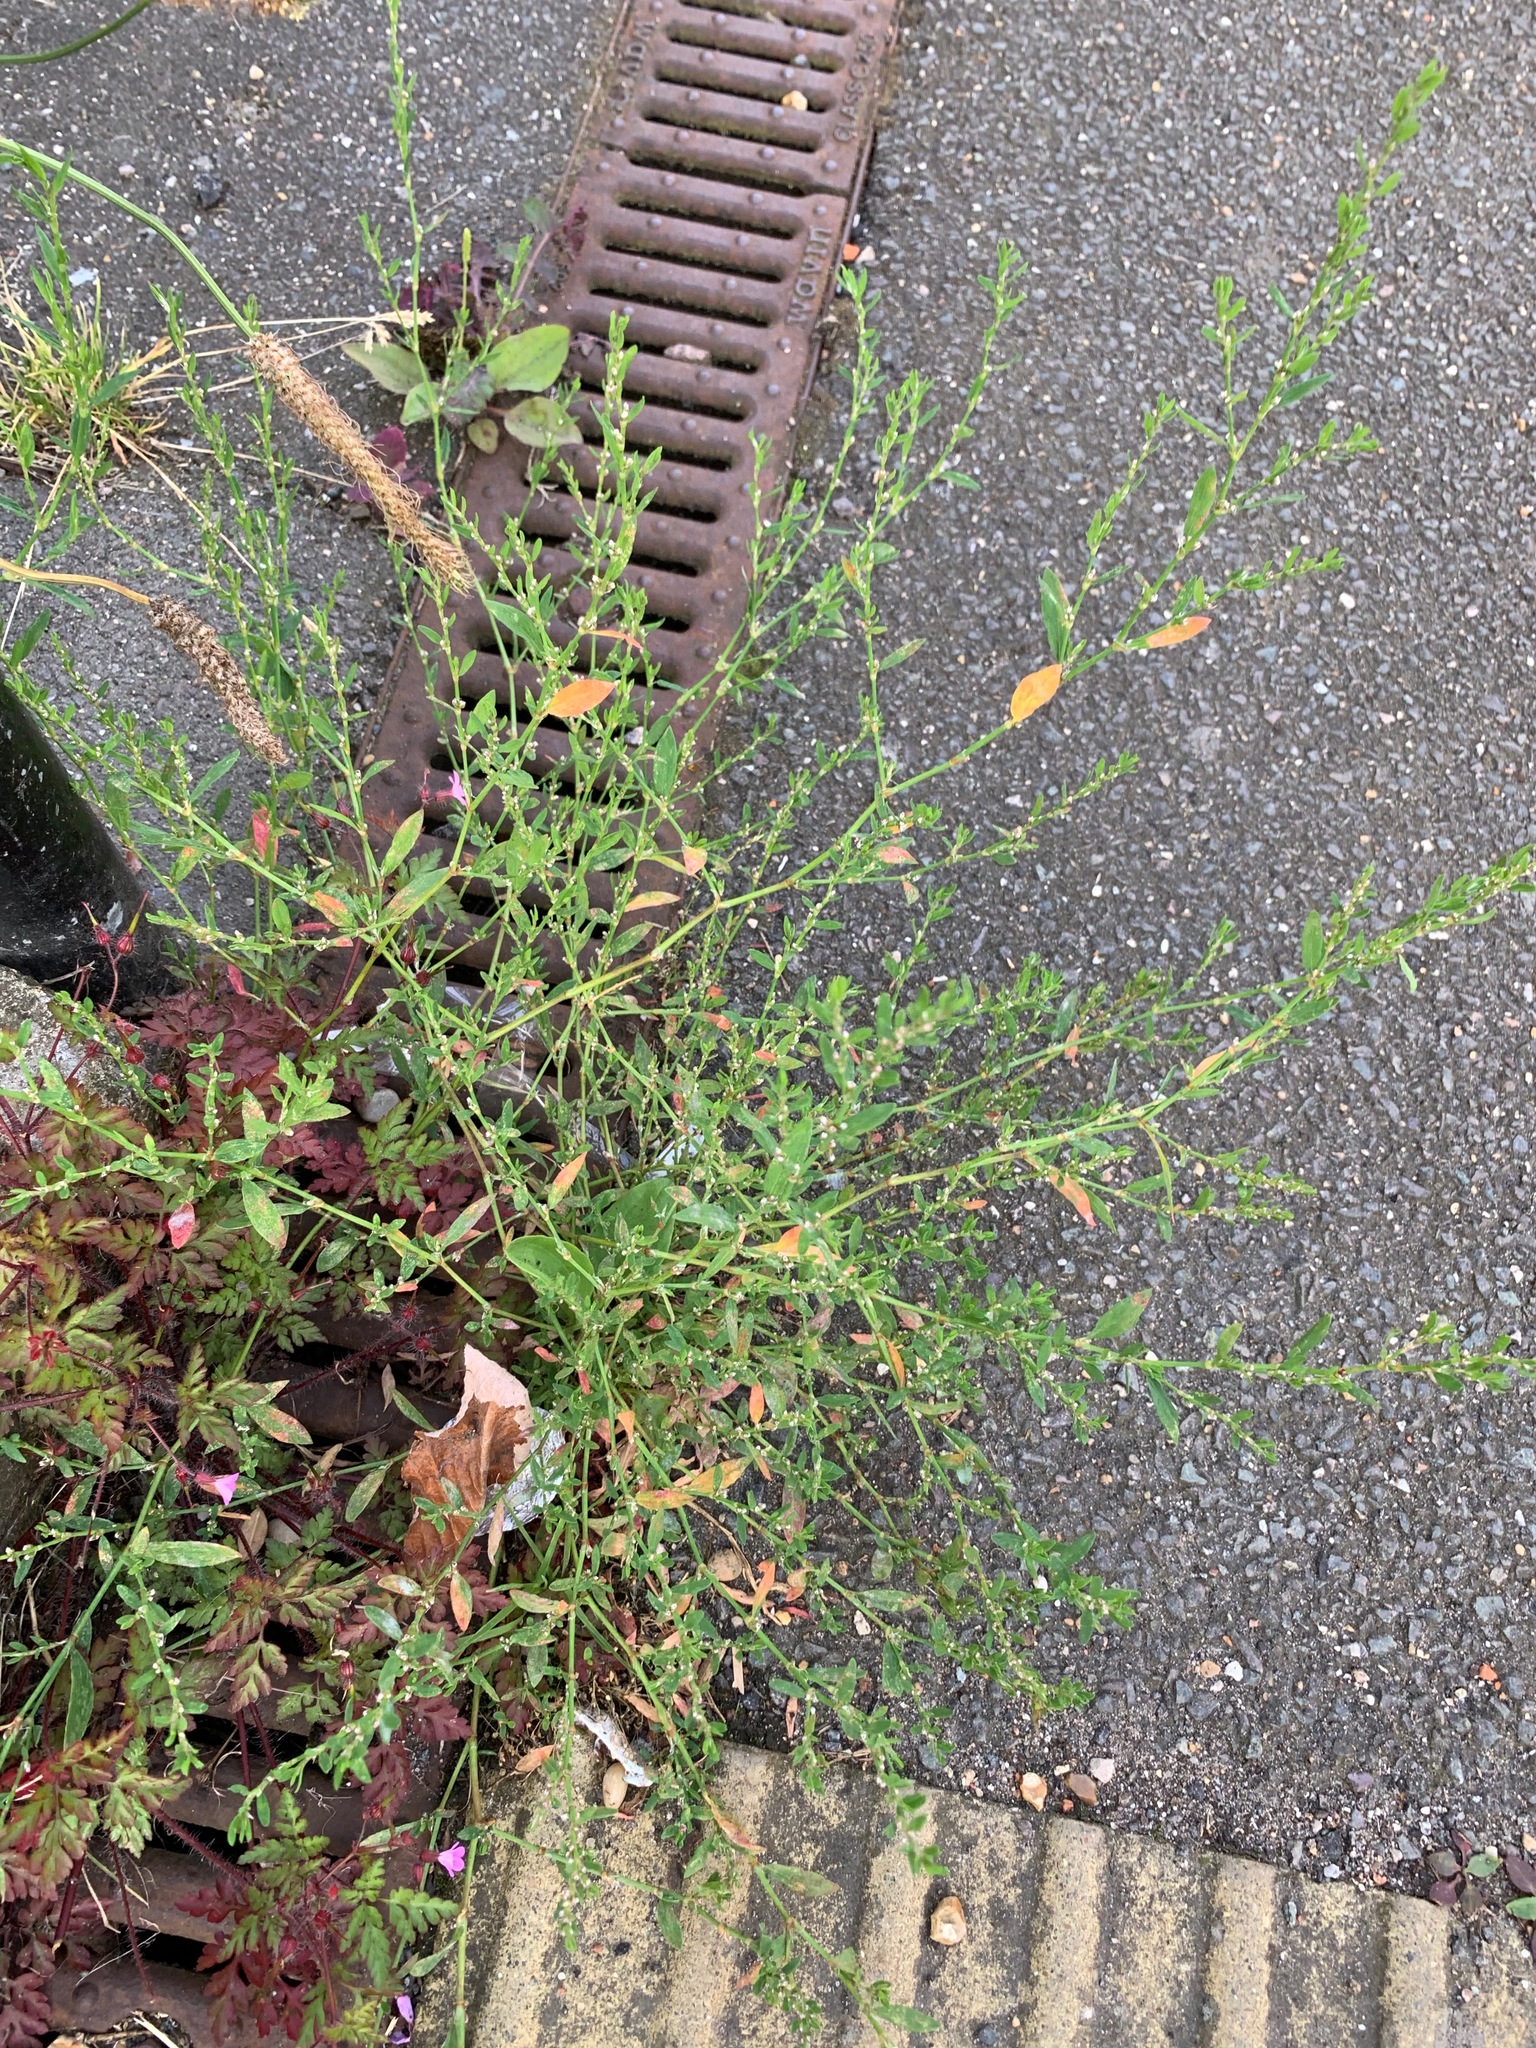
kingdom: Plantae
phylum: Tracheophyta
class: Magnoliopsida
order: Caryophyllales
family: Polygonaceae
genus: Polygonum
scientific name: Polygonum aviculare
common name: Prostrate knotweed
